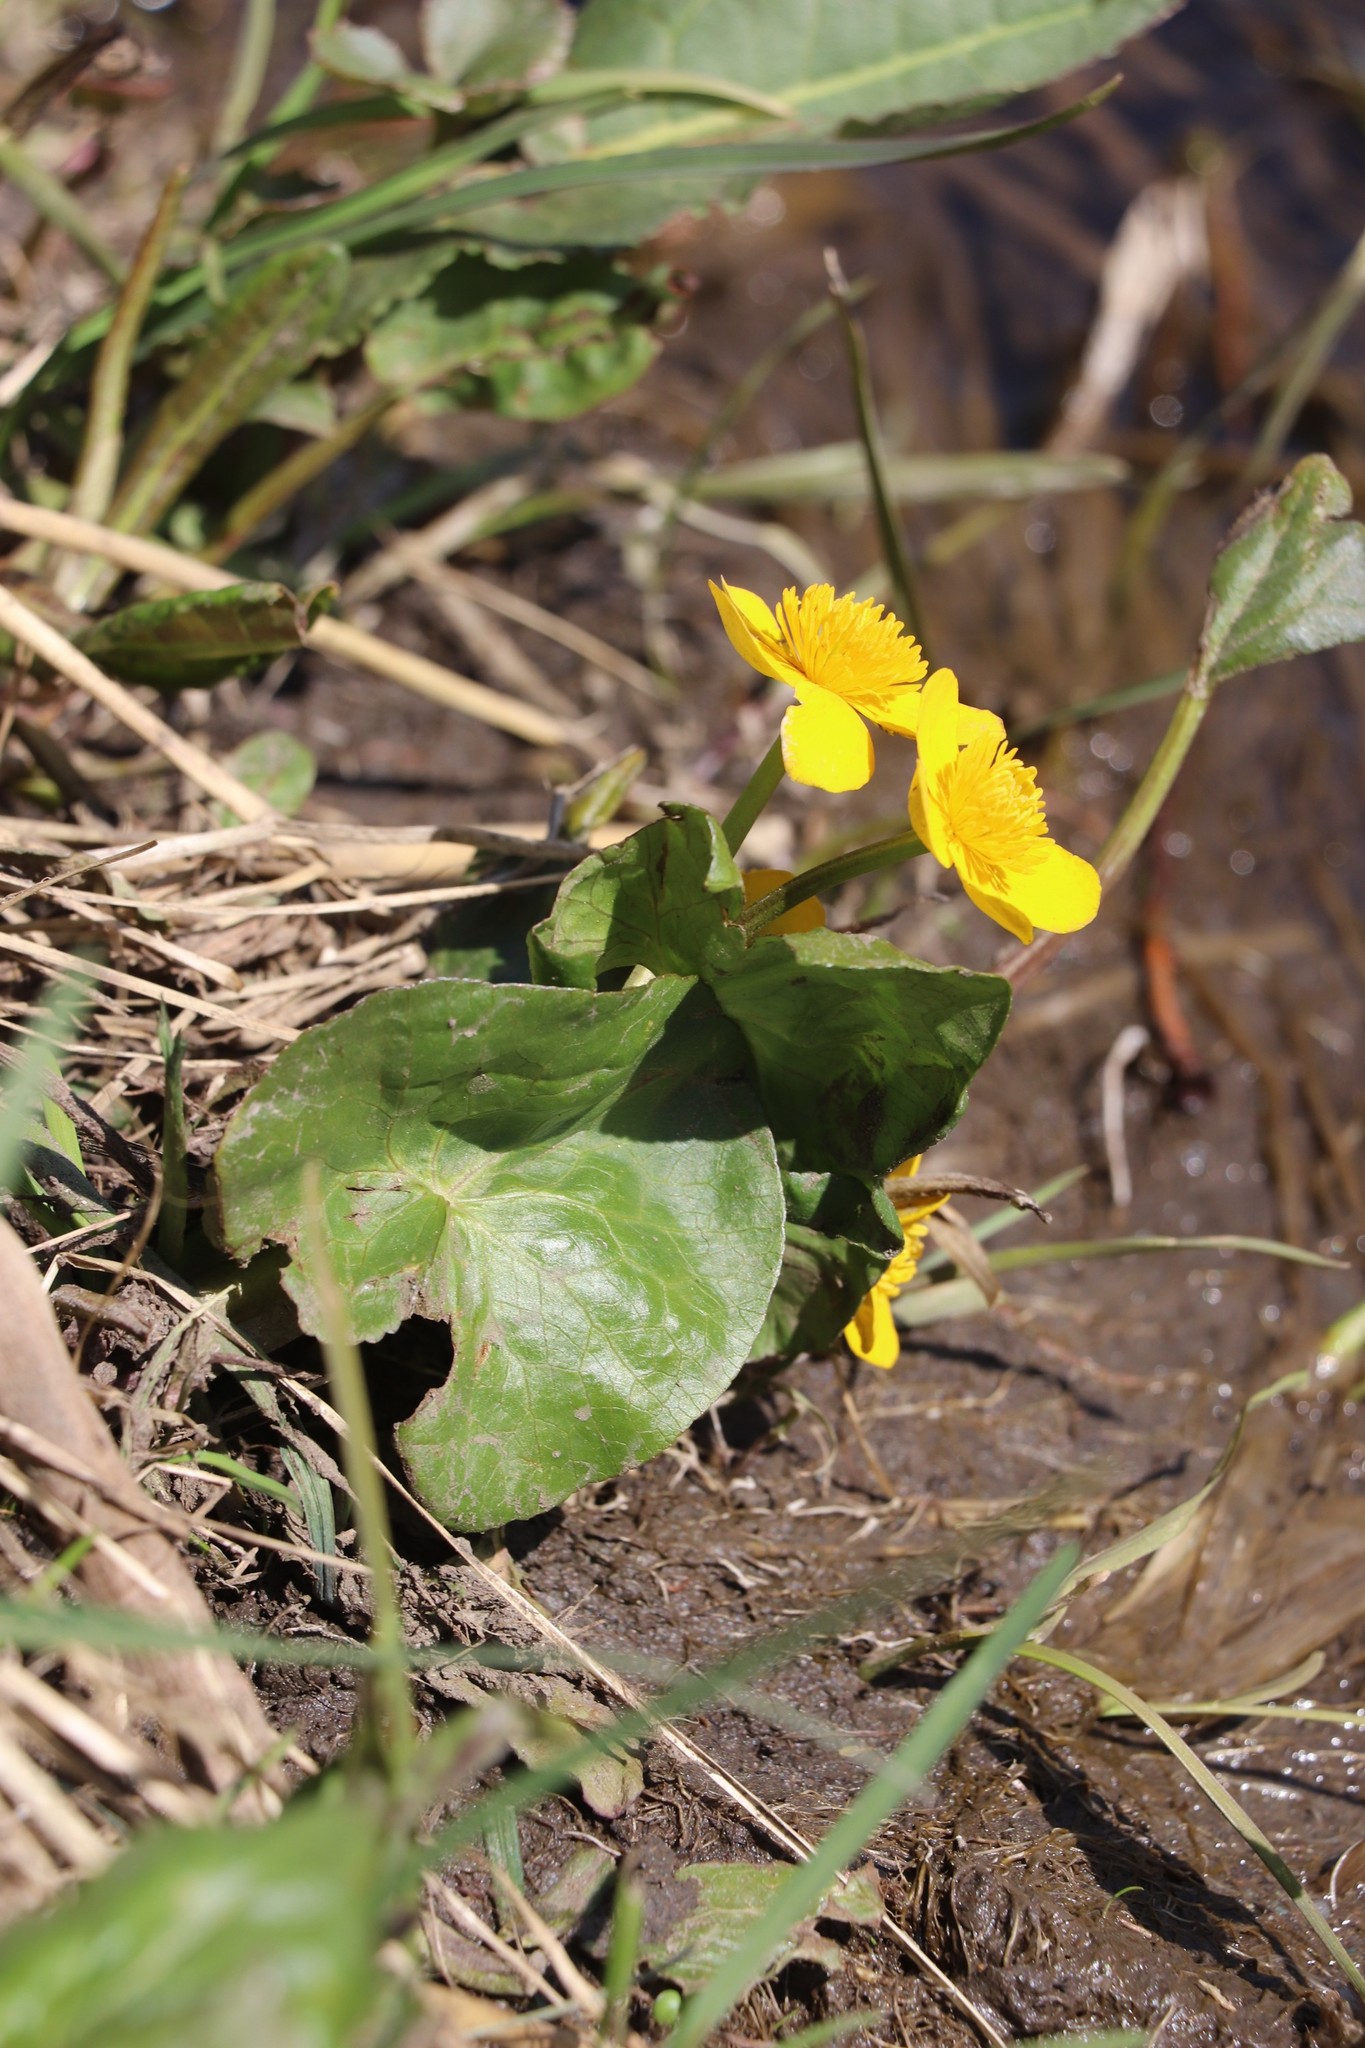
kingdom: Plantae
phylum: Tracheophyta
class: Magnoliopsida
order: Ranunculales
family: Ranunculaceae
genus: Caltha
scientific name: Caltha palustris
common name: Marsh marigold
